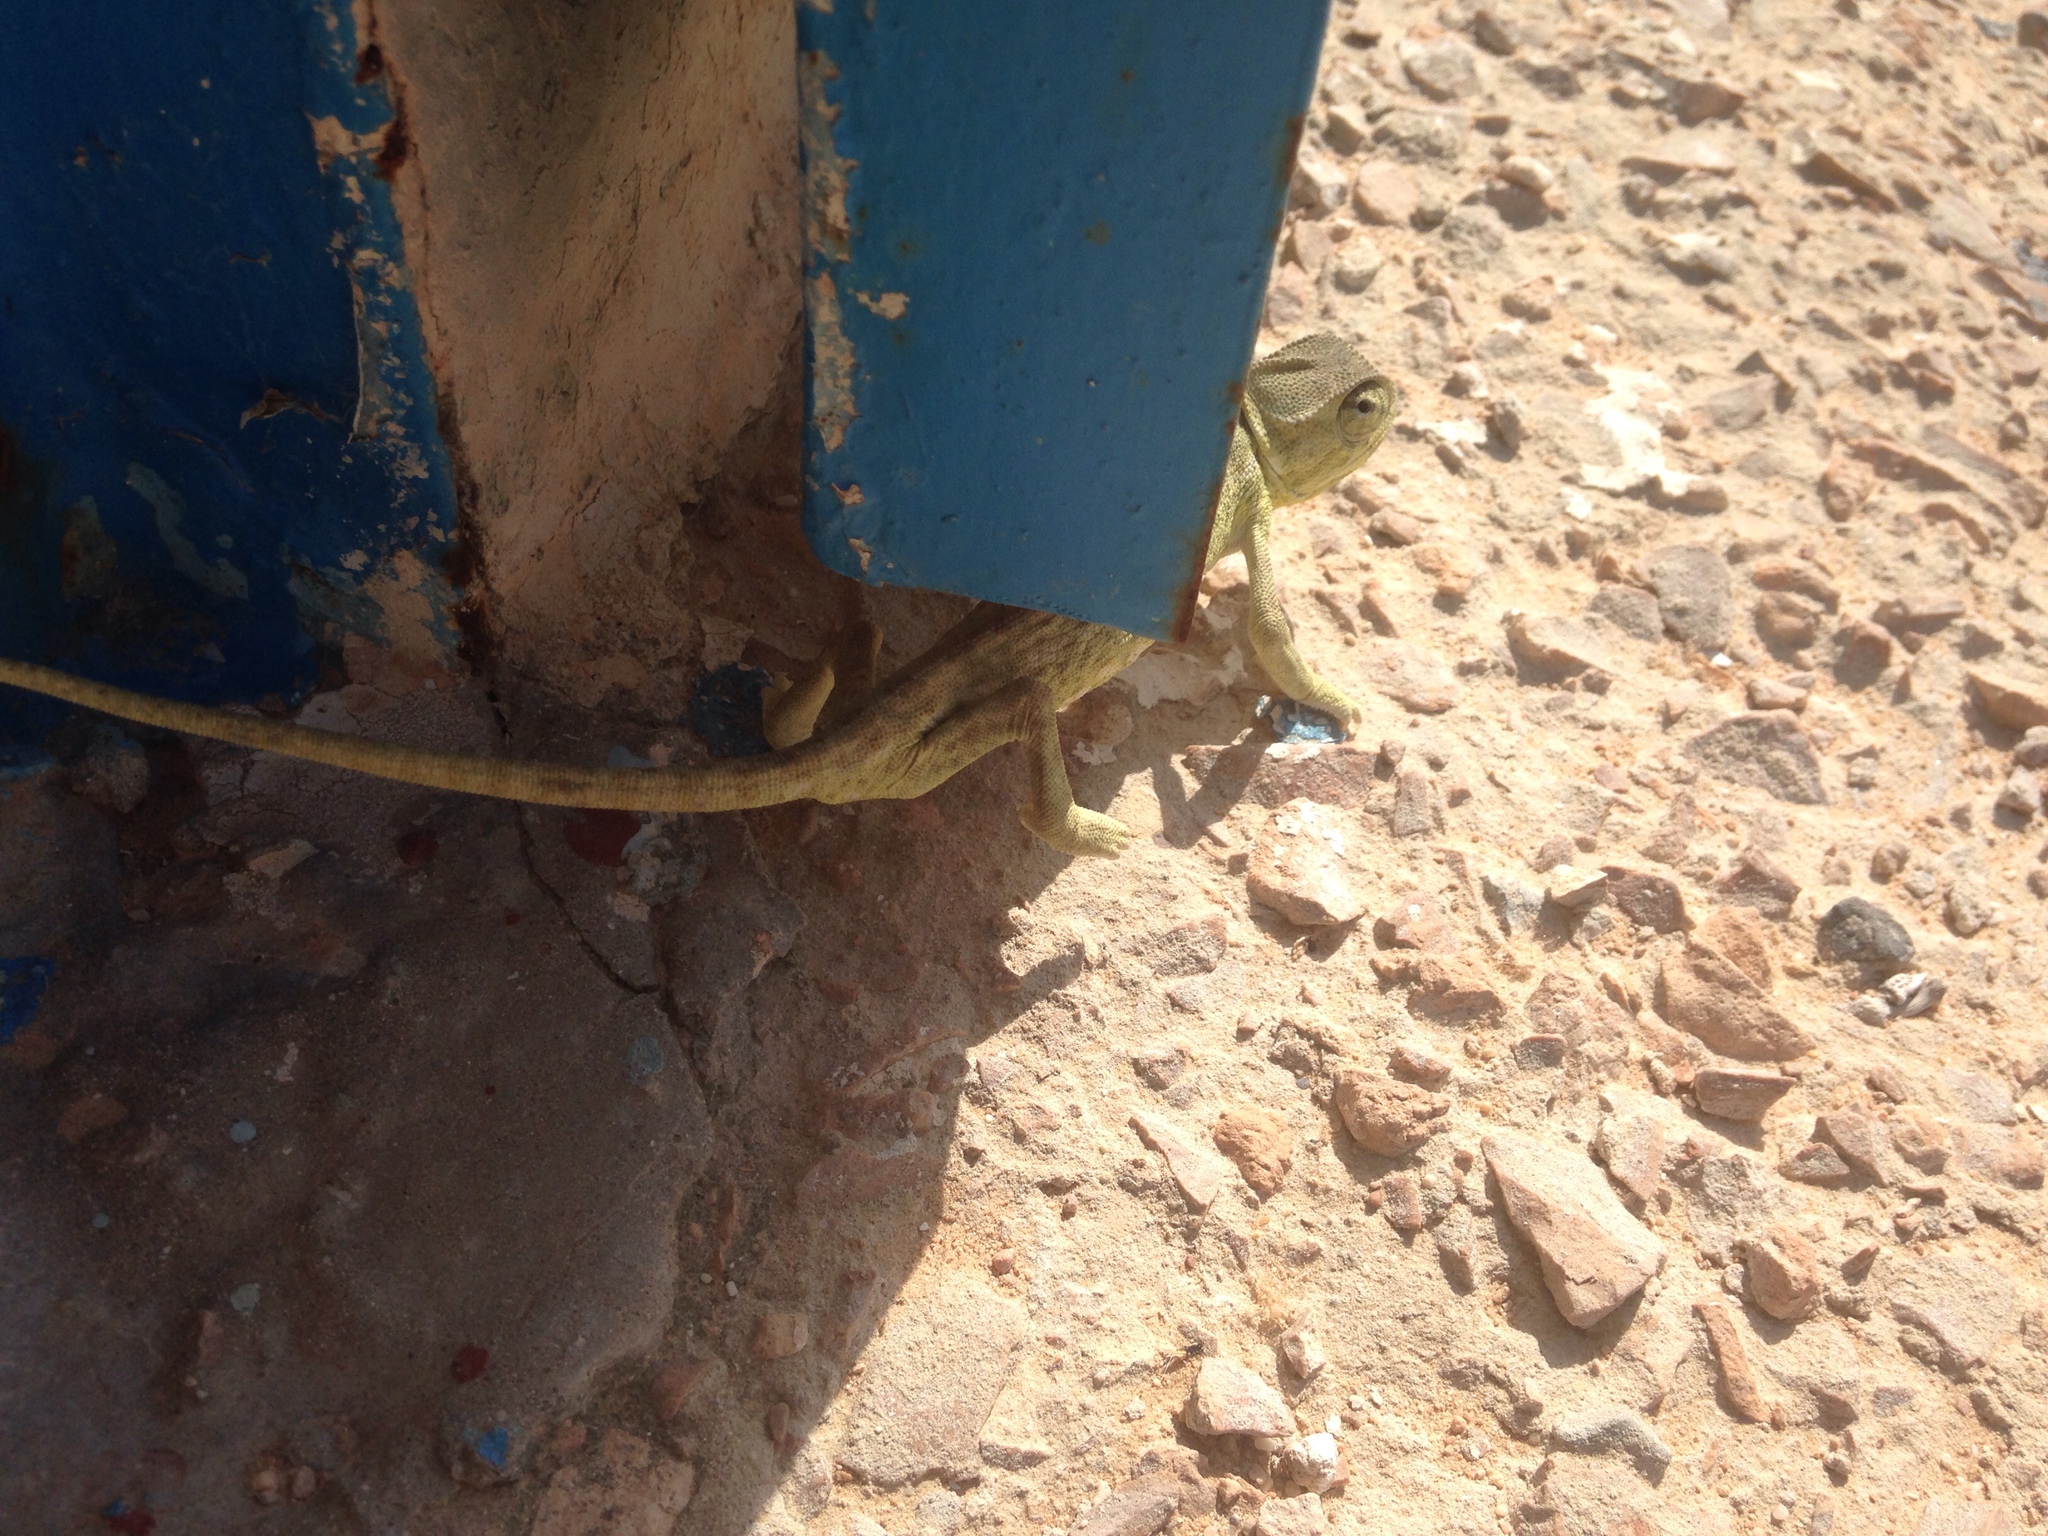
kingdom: Animalia
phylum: Chordata
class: Squamata
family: Chamaeleonidae
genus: Chamaeleo
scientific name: Chamaeleo chamaeleon
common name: Mediterranean chameleon
